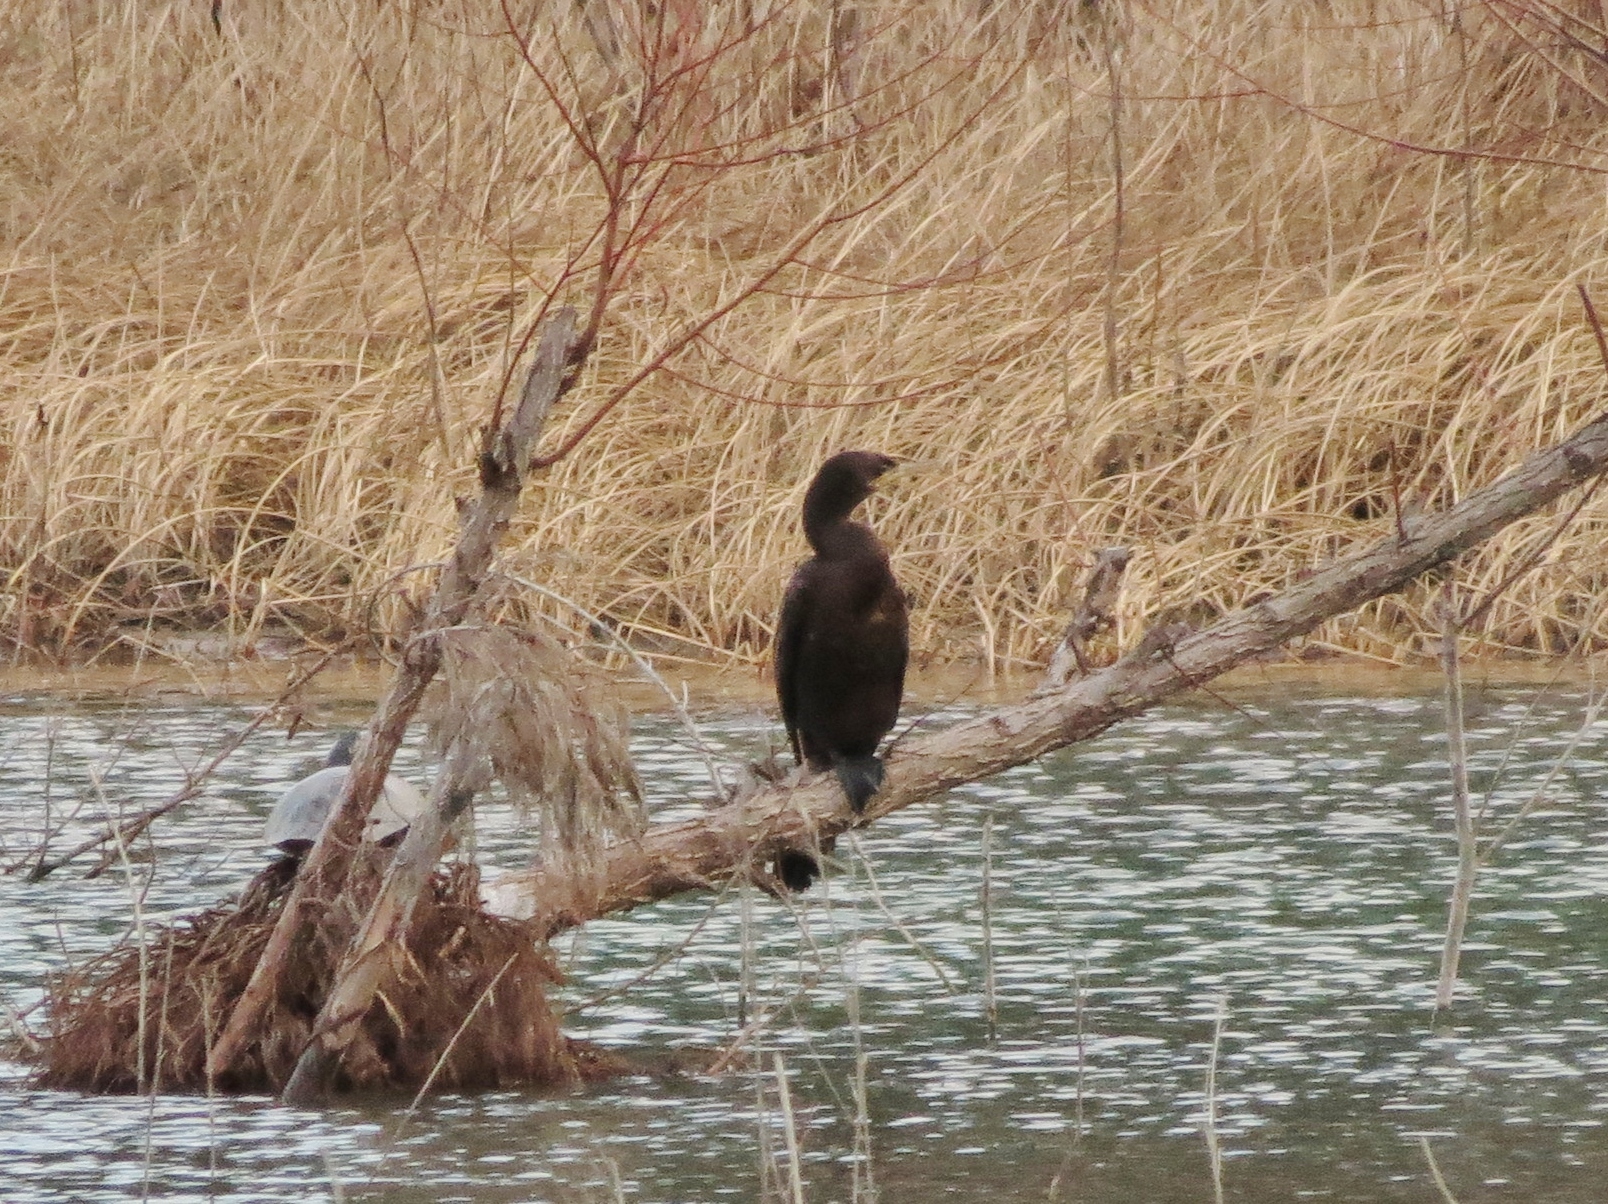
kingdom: Animalia
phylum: Chordata
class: Aves
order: Suliformes
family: Phalacrocoracidae
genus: Phalacrocorax
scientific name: Phalacrocorax brasilianus
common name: Neotropic cormorant
